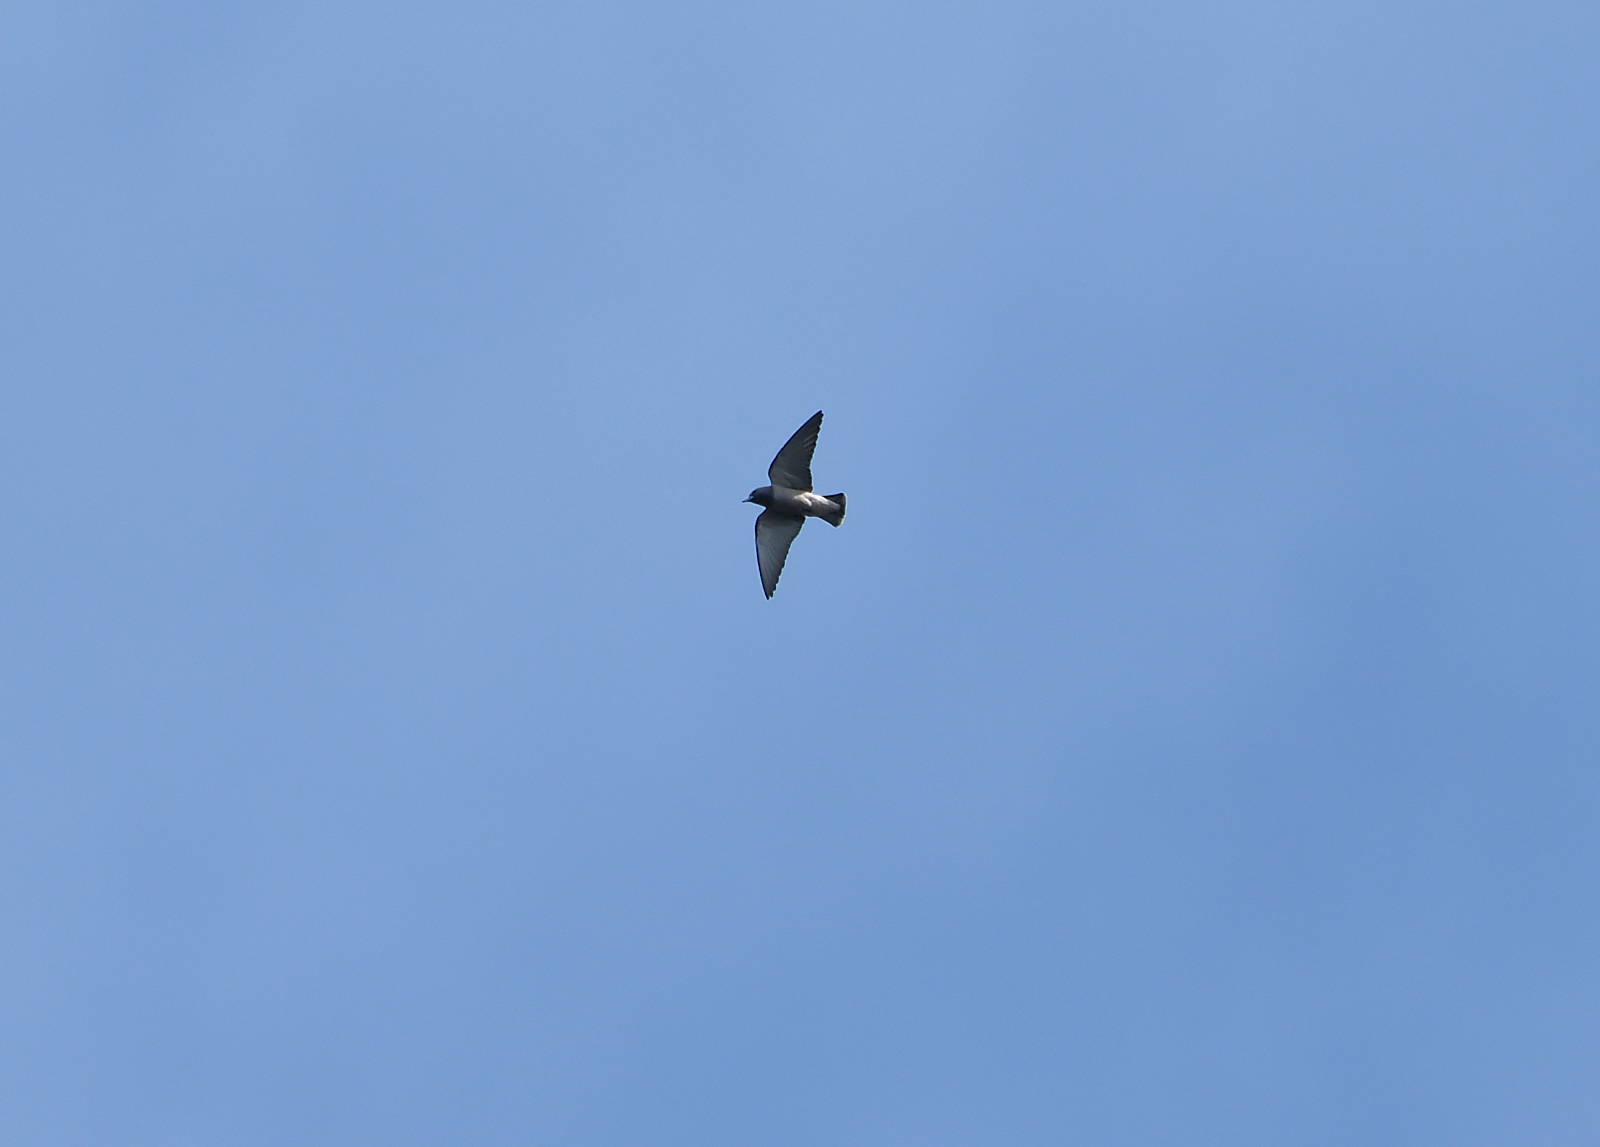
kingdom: Animalia
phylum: Chordata
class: Aves
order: Passeriformes
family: Artamidae
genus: Artamus
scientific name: Artamus fuscus
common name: Ashy woodswallow
